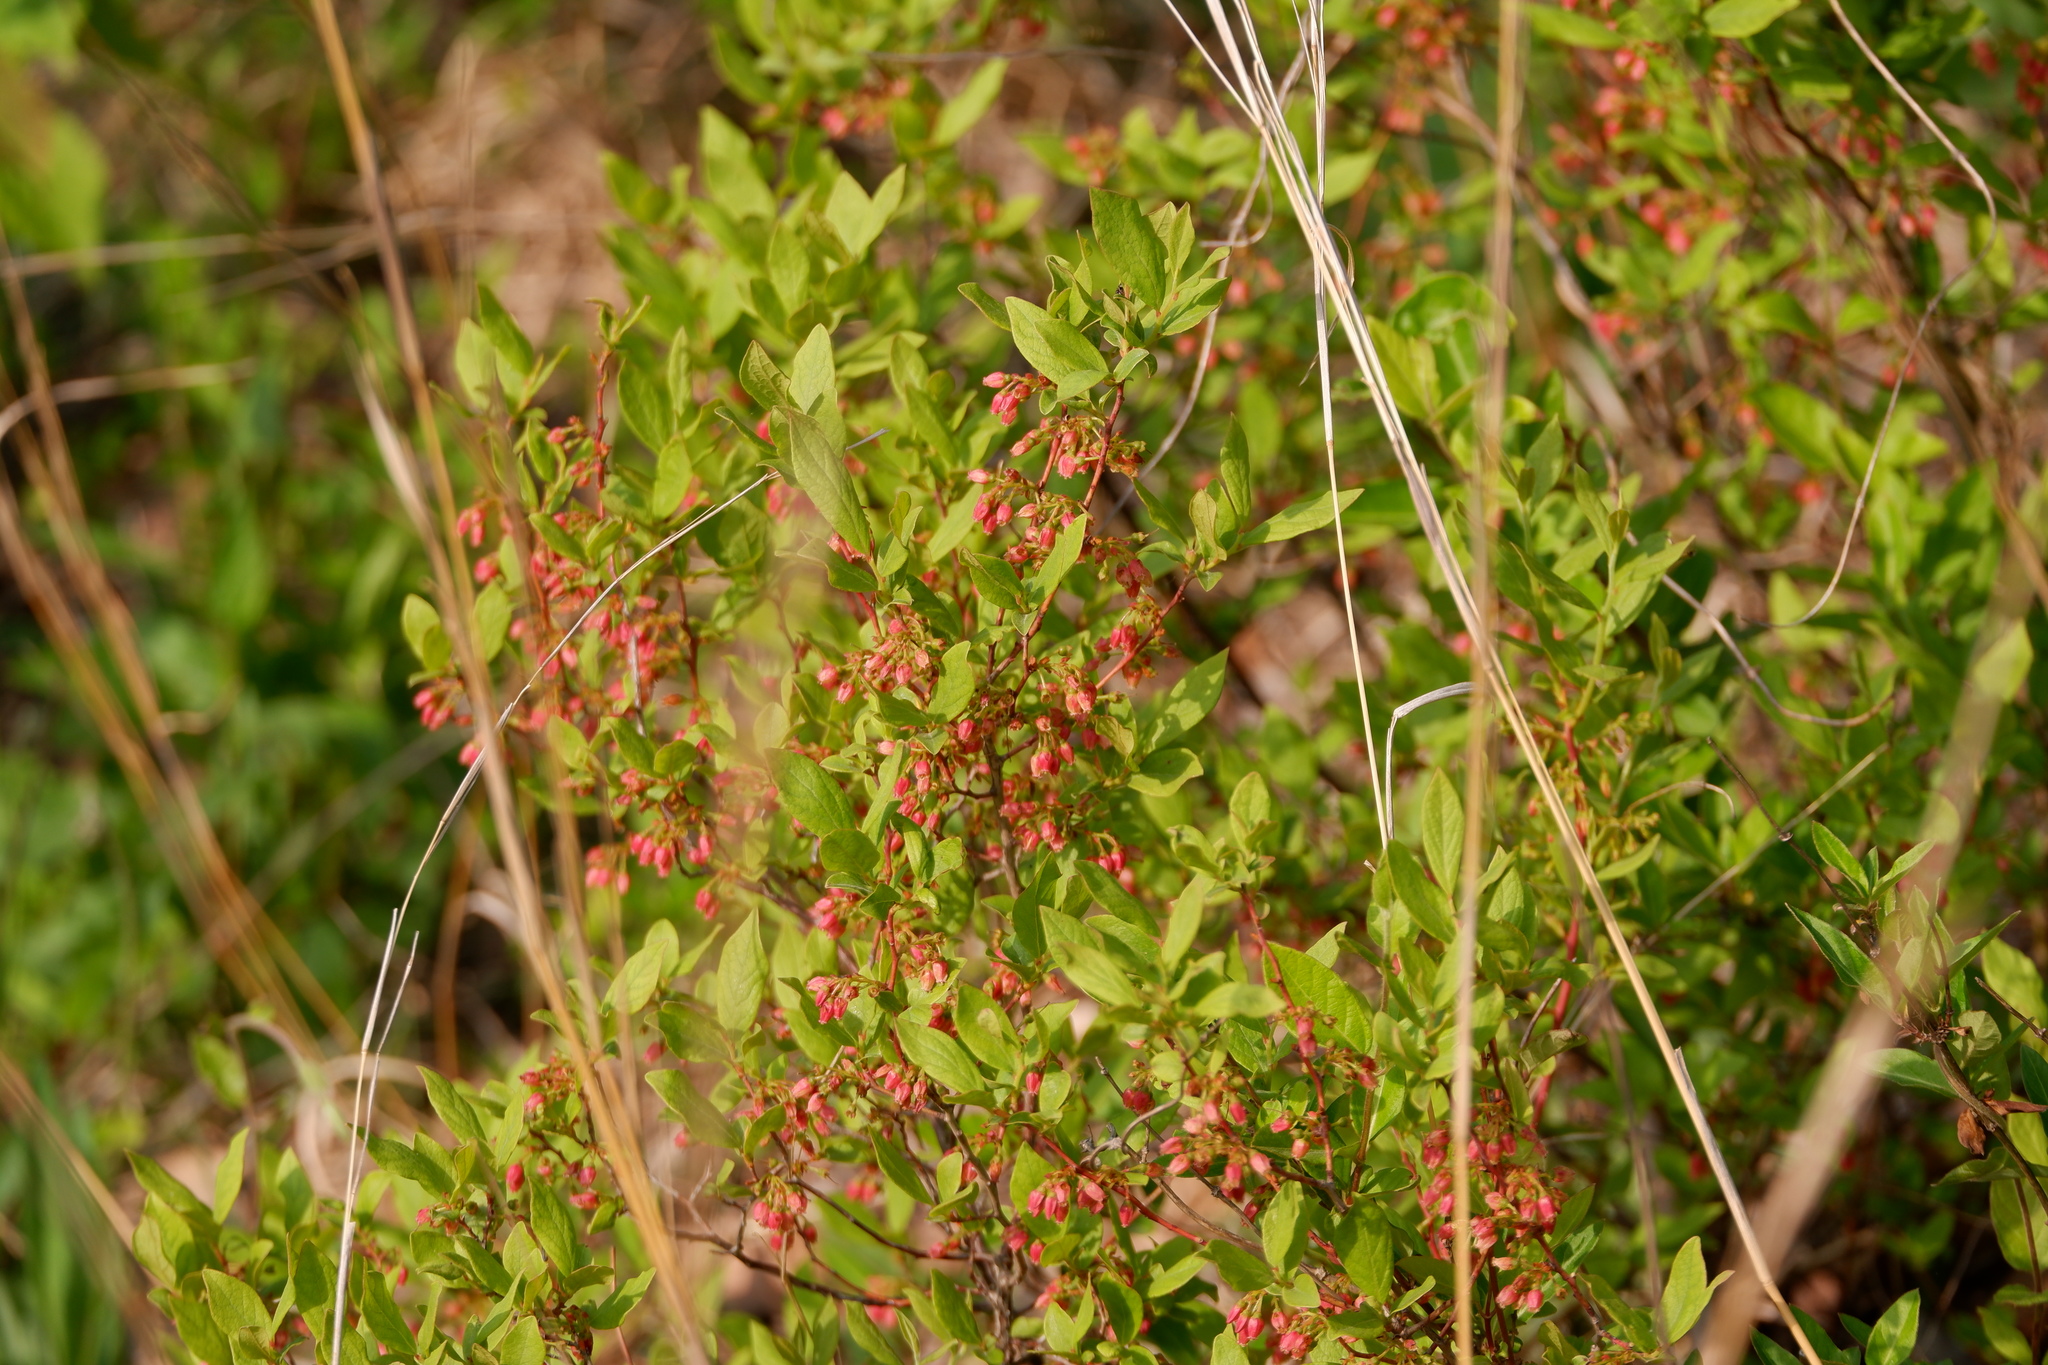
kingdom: Plantae
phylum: Tracheophyta
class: Magnoliopsida
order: Ericales
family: Ericaceae
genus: Gaylussacia
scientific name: Gaylussacia baccata
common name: Black huckleberry
